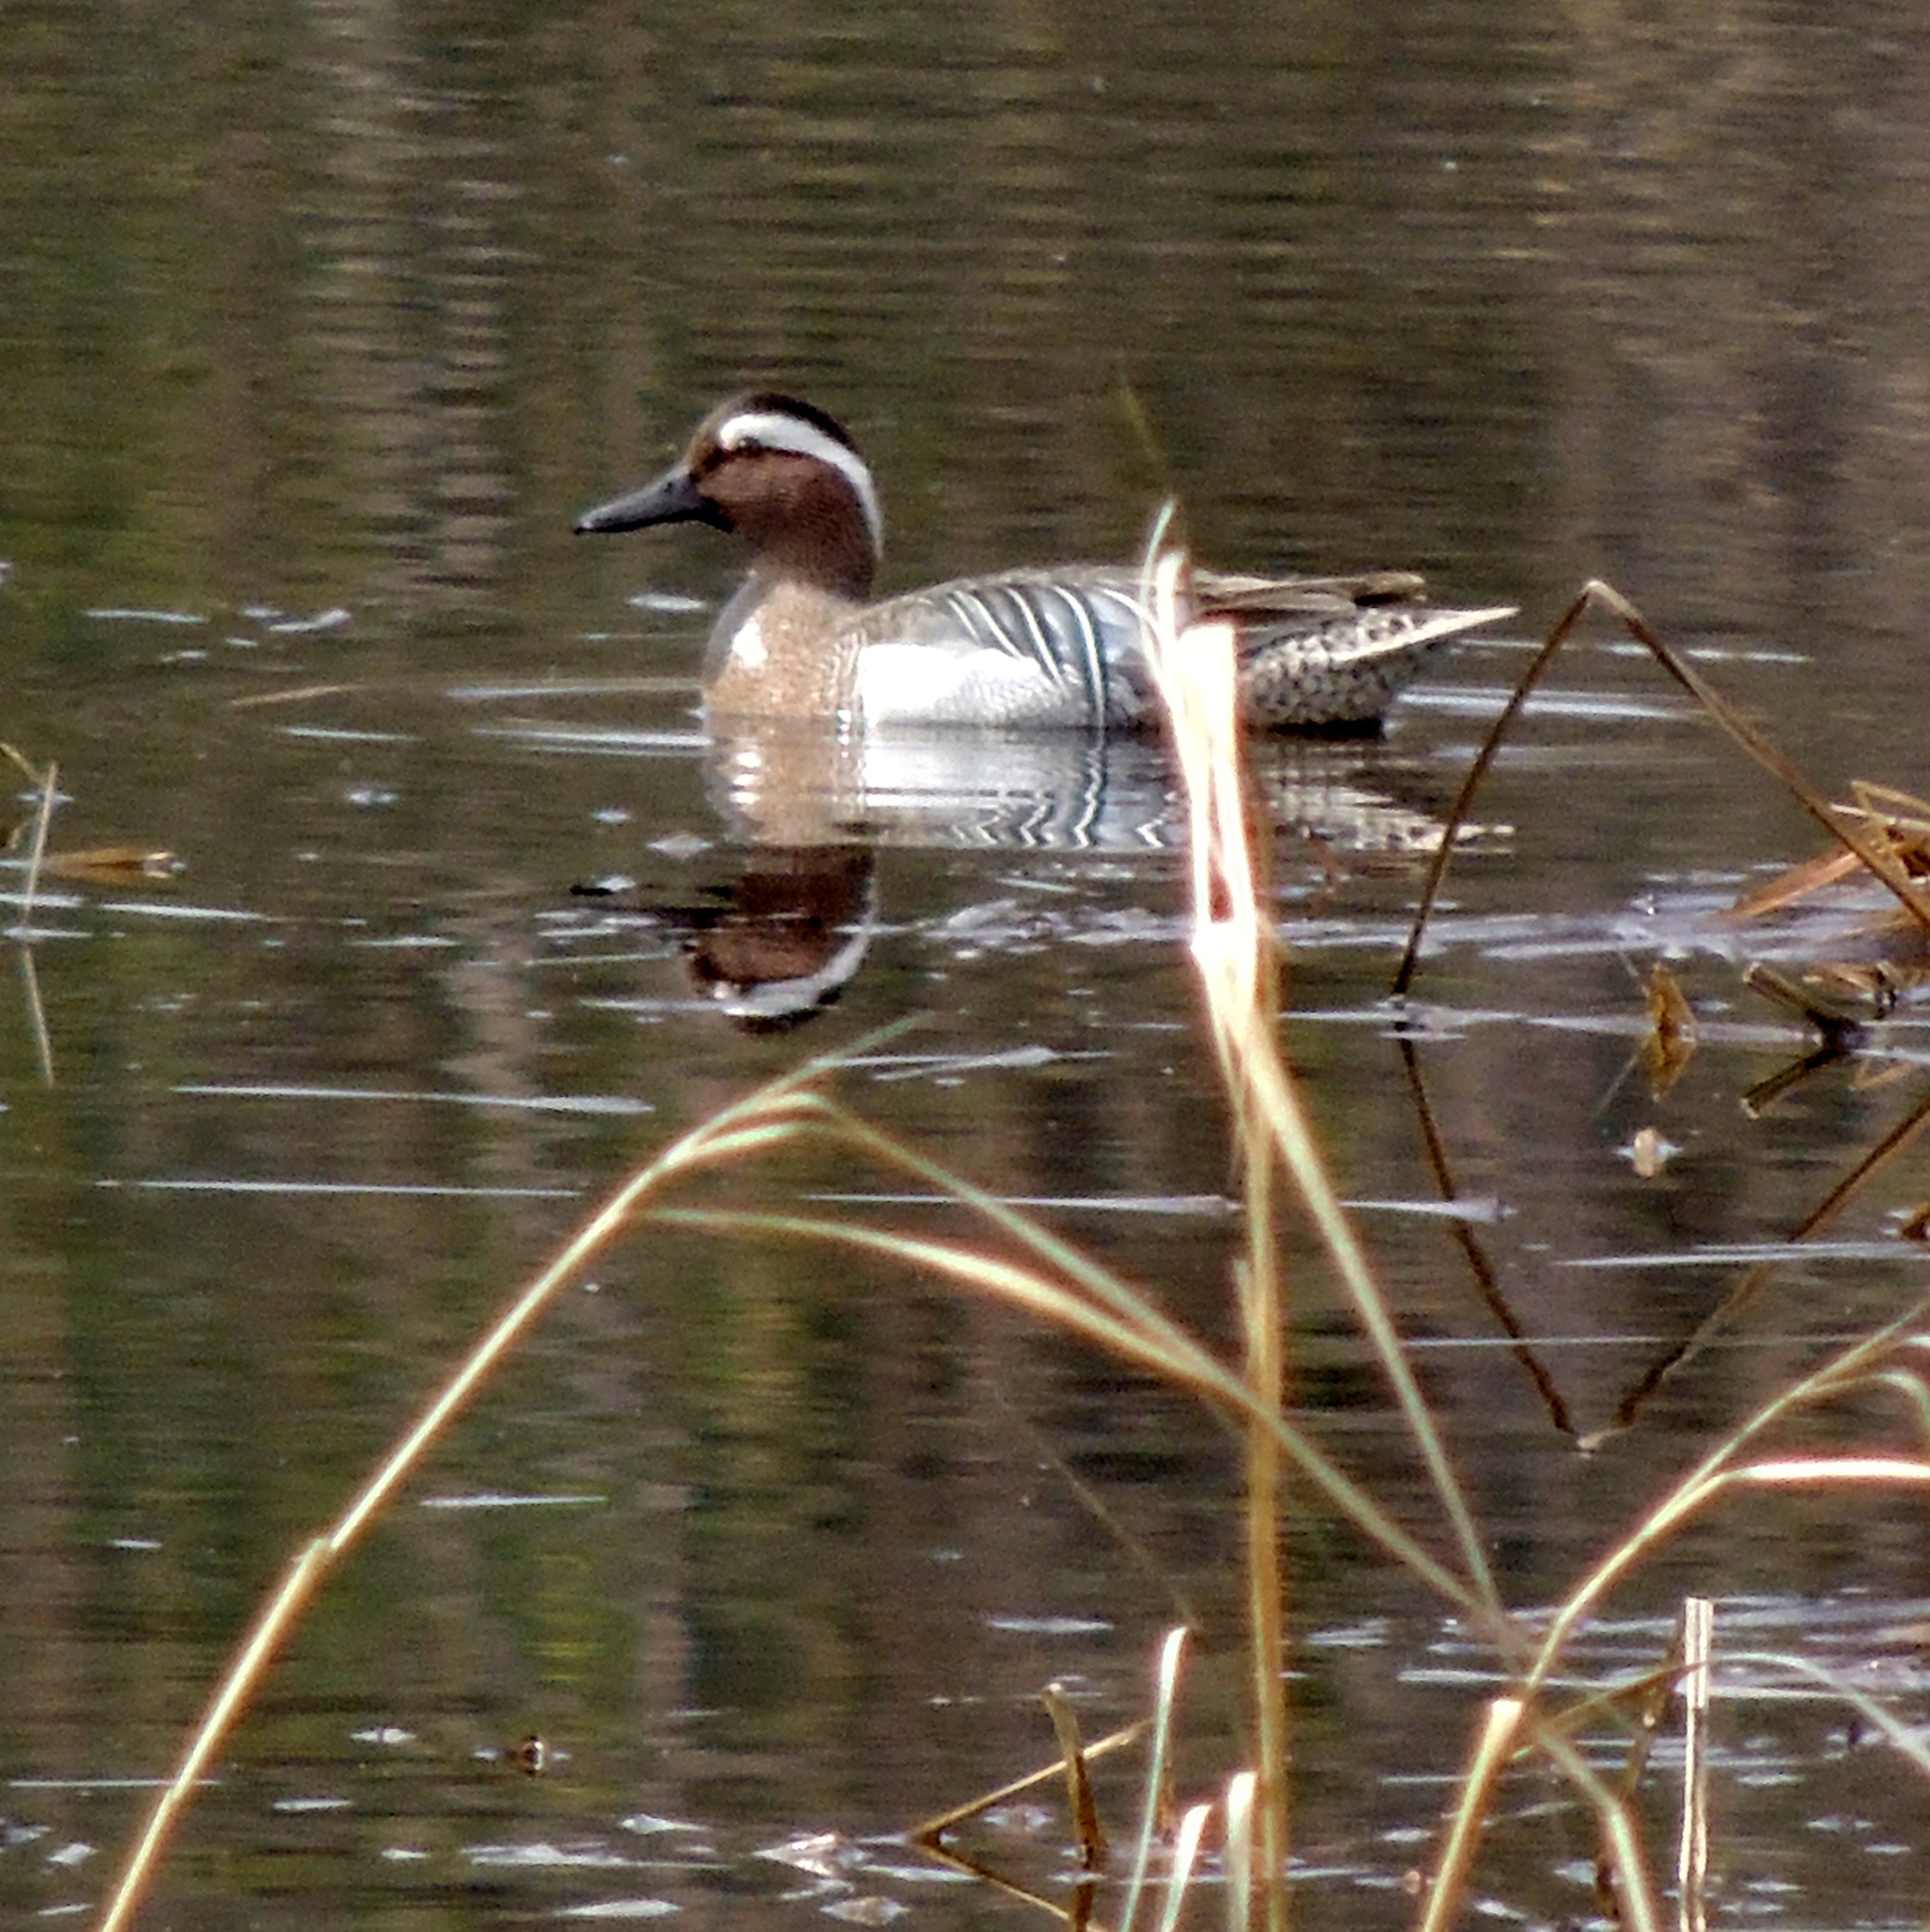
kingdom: Animalia
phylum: Chordata
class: Aves
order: Anseriformes
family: Anatidae
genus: Spatula
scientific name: Spatula querquedula
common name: Garganey
